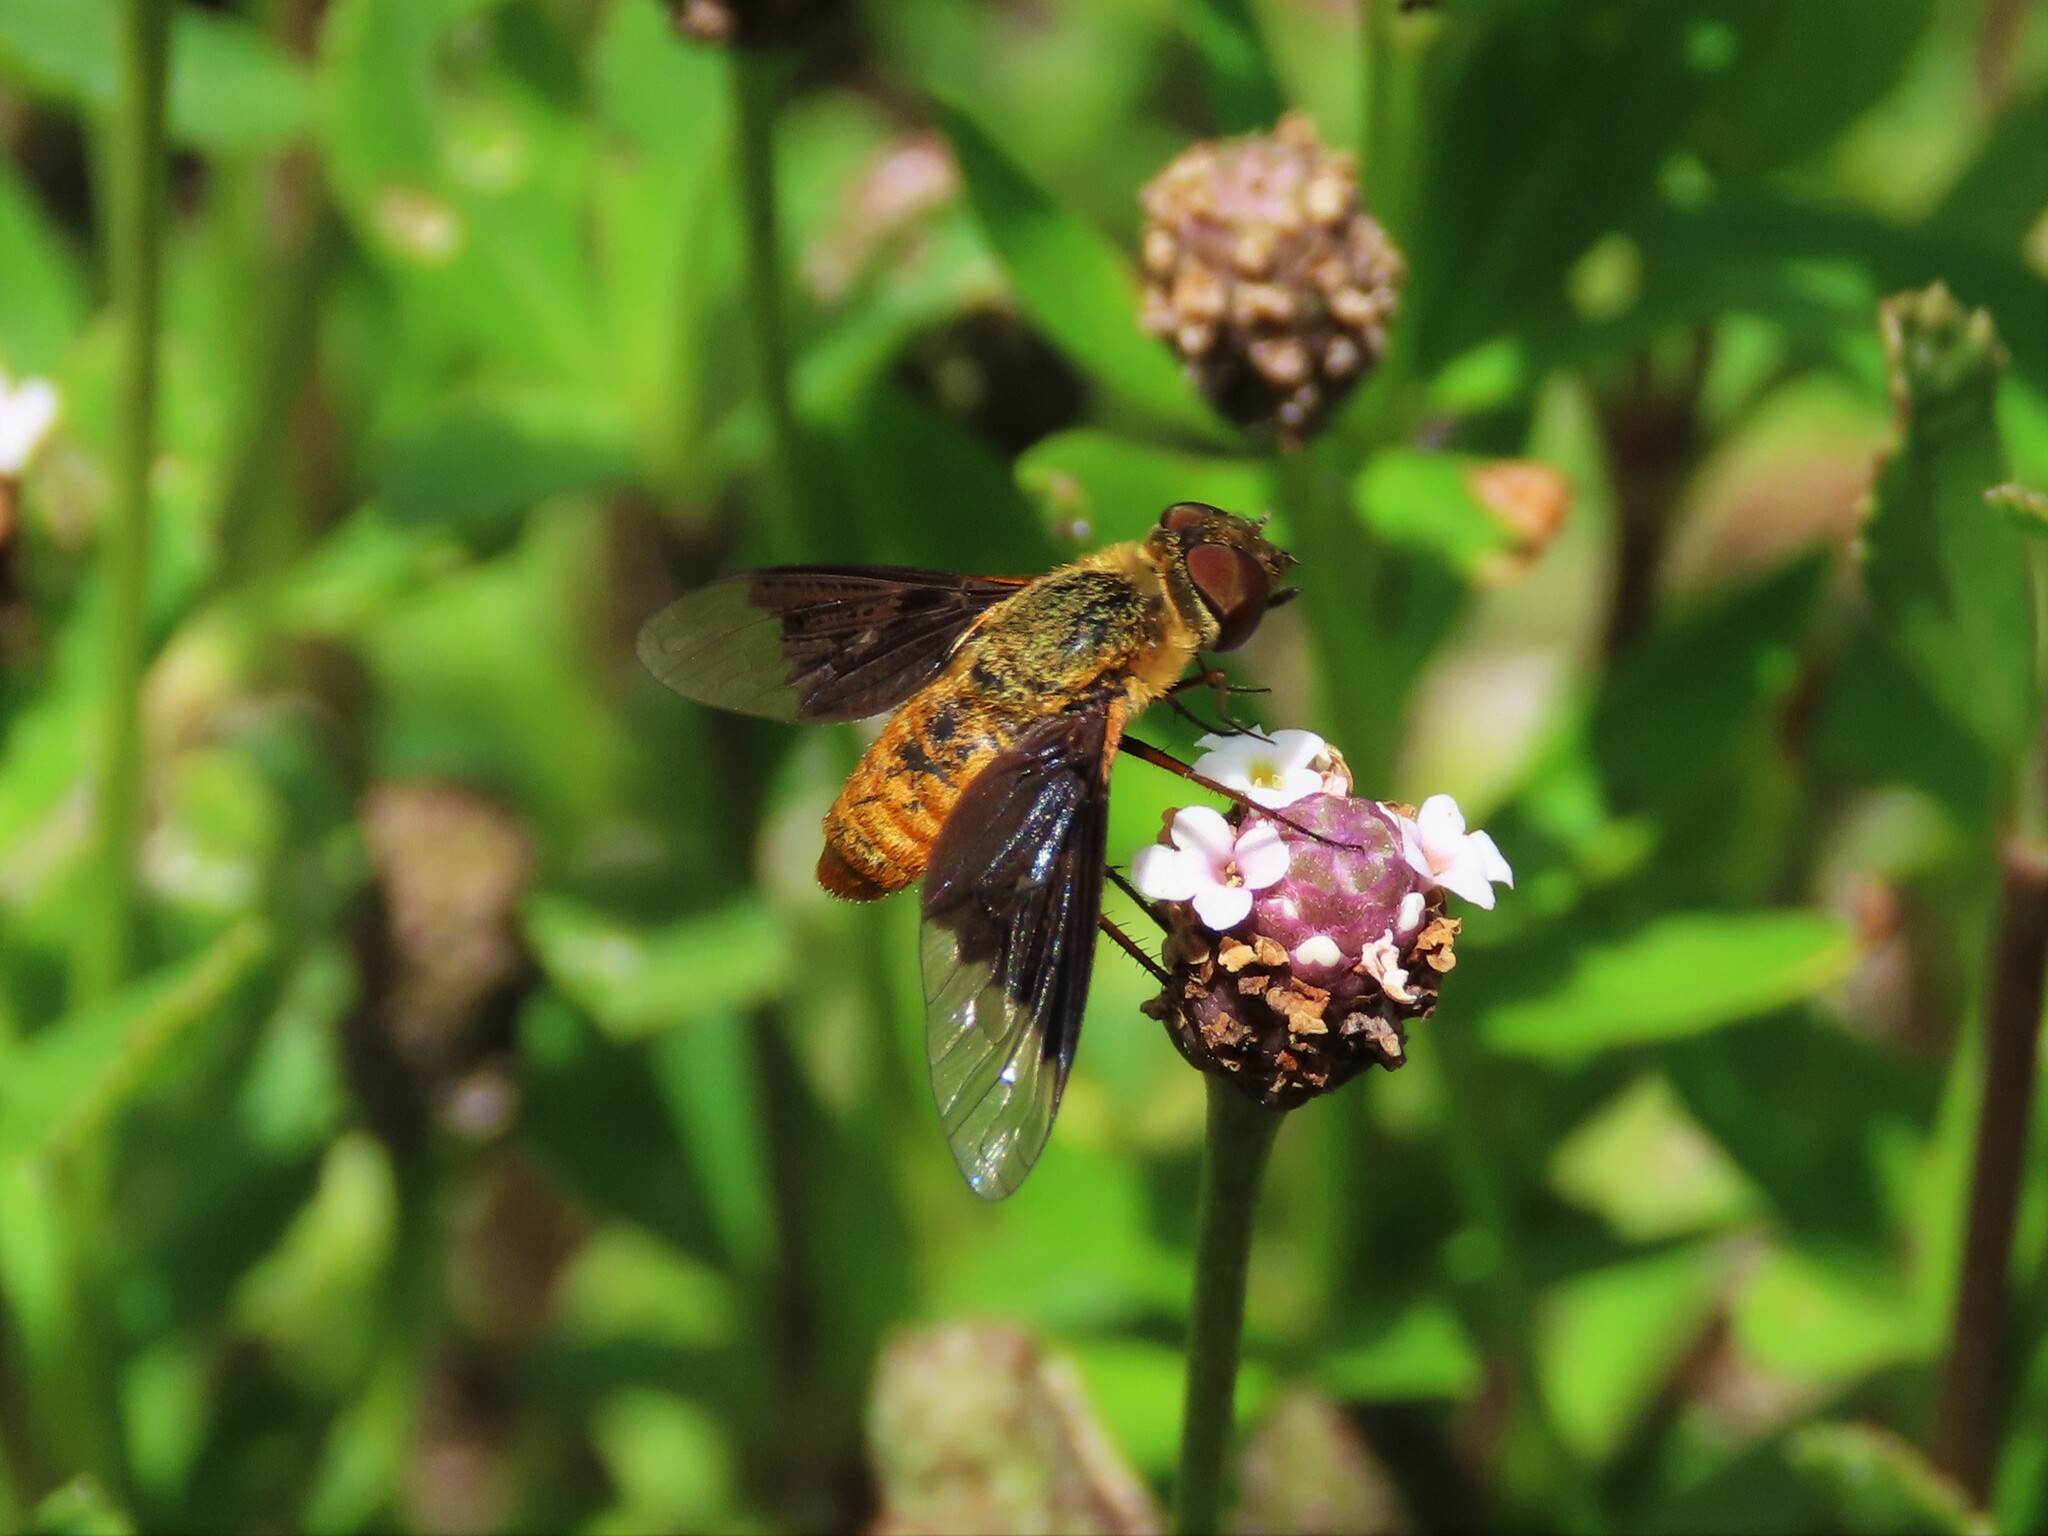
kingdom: Animalia
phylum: Arthropoda
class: Insecta
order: Diptera
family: Bombyliidae
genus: Chrysanthrax
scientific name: Chrysanthrax cypris
